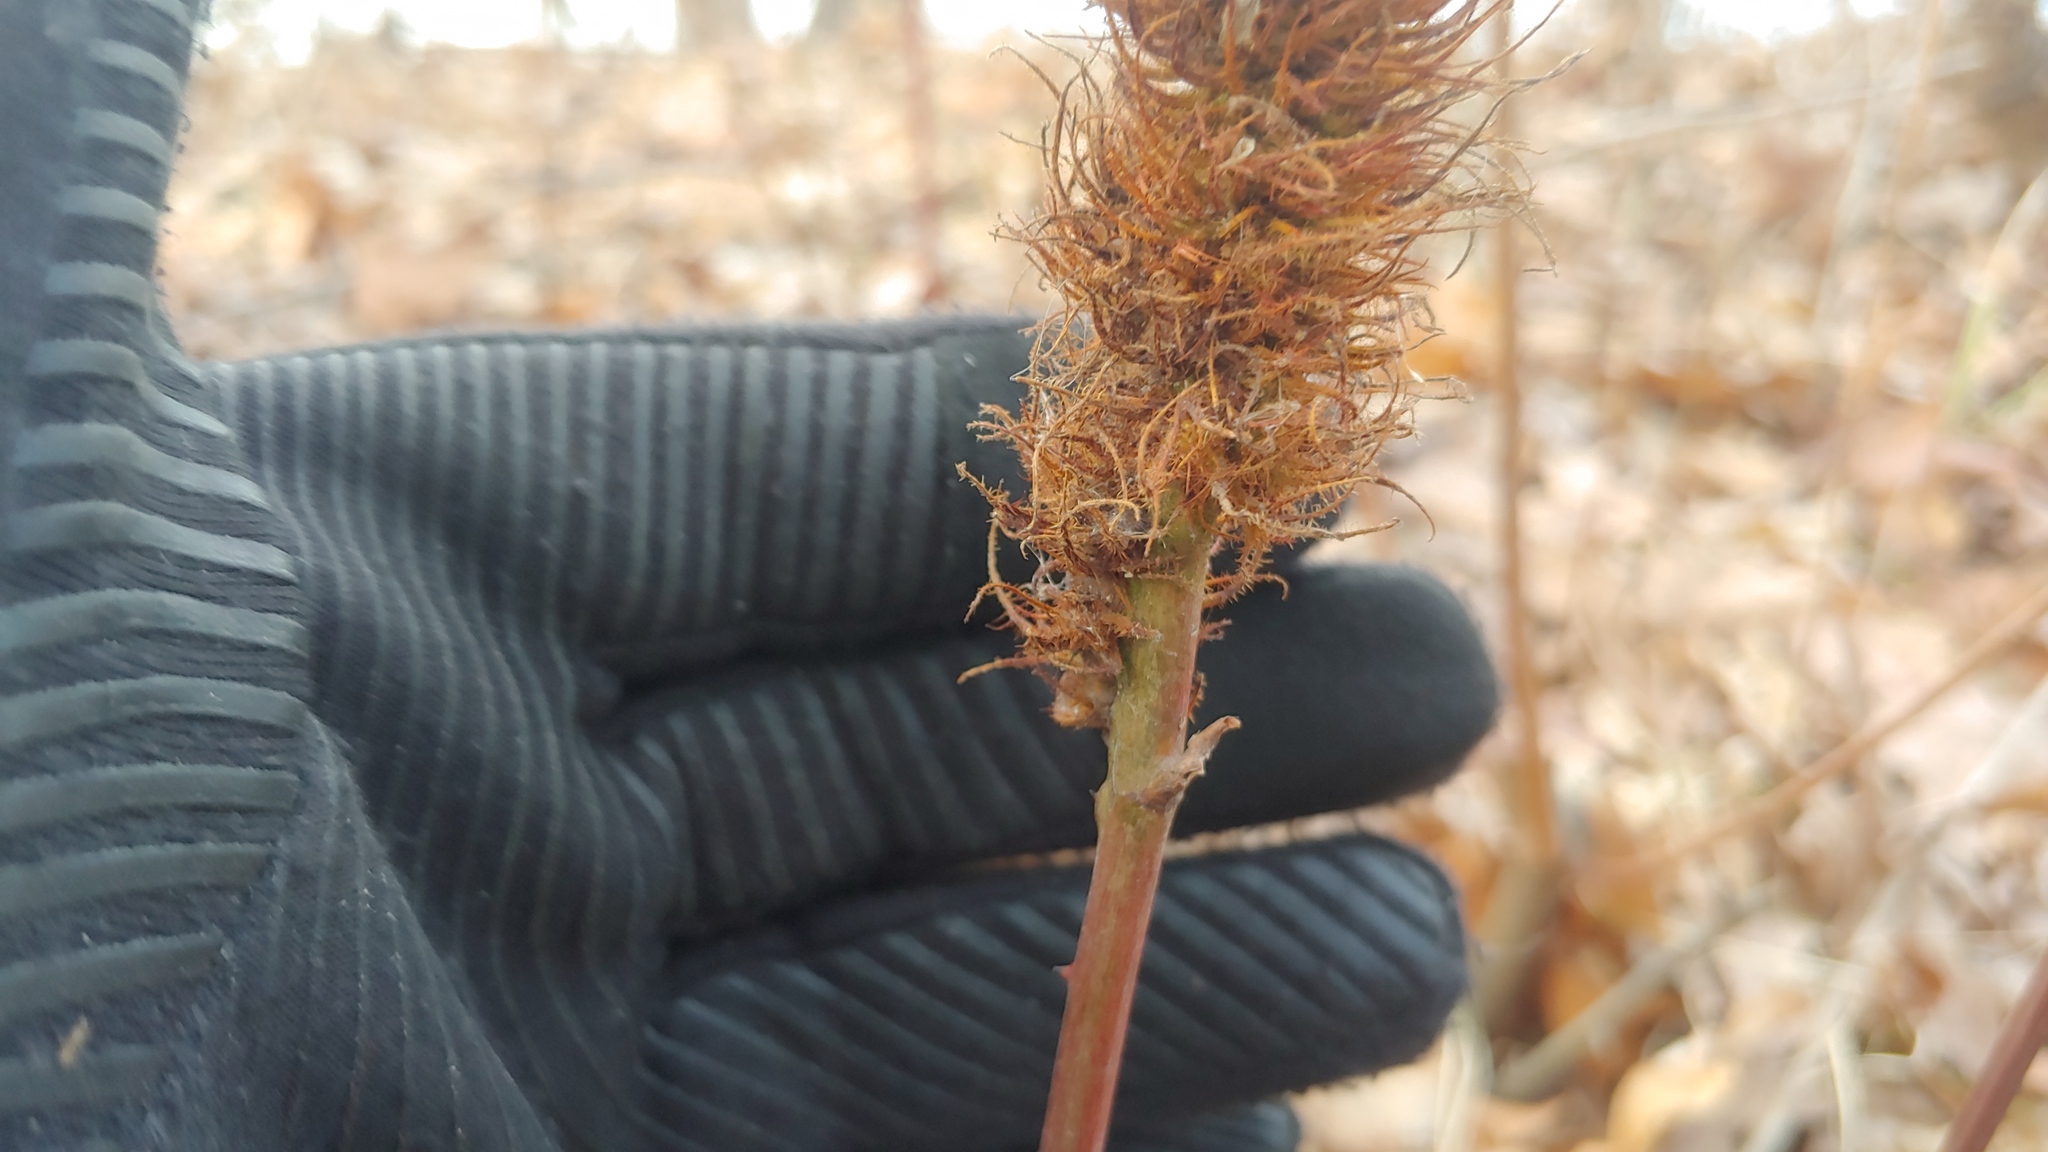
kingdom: Animalia
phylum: Arthropoda
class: Insecta
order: Hymenoptera
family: Cynipidae
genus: Diastrophus
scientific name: Diastrophus
